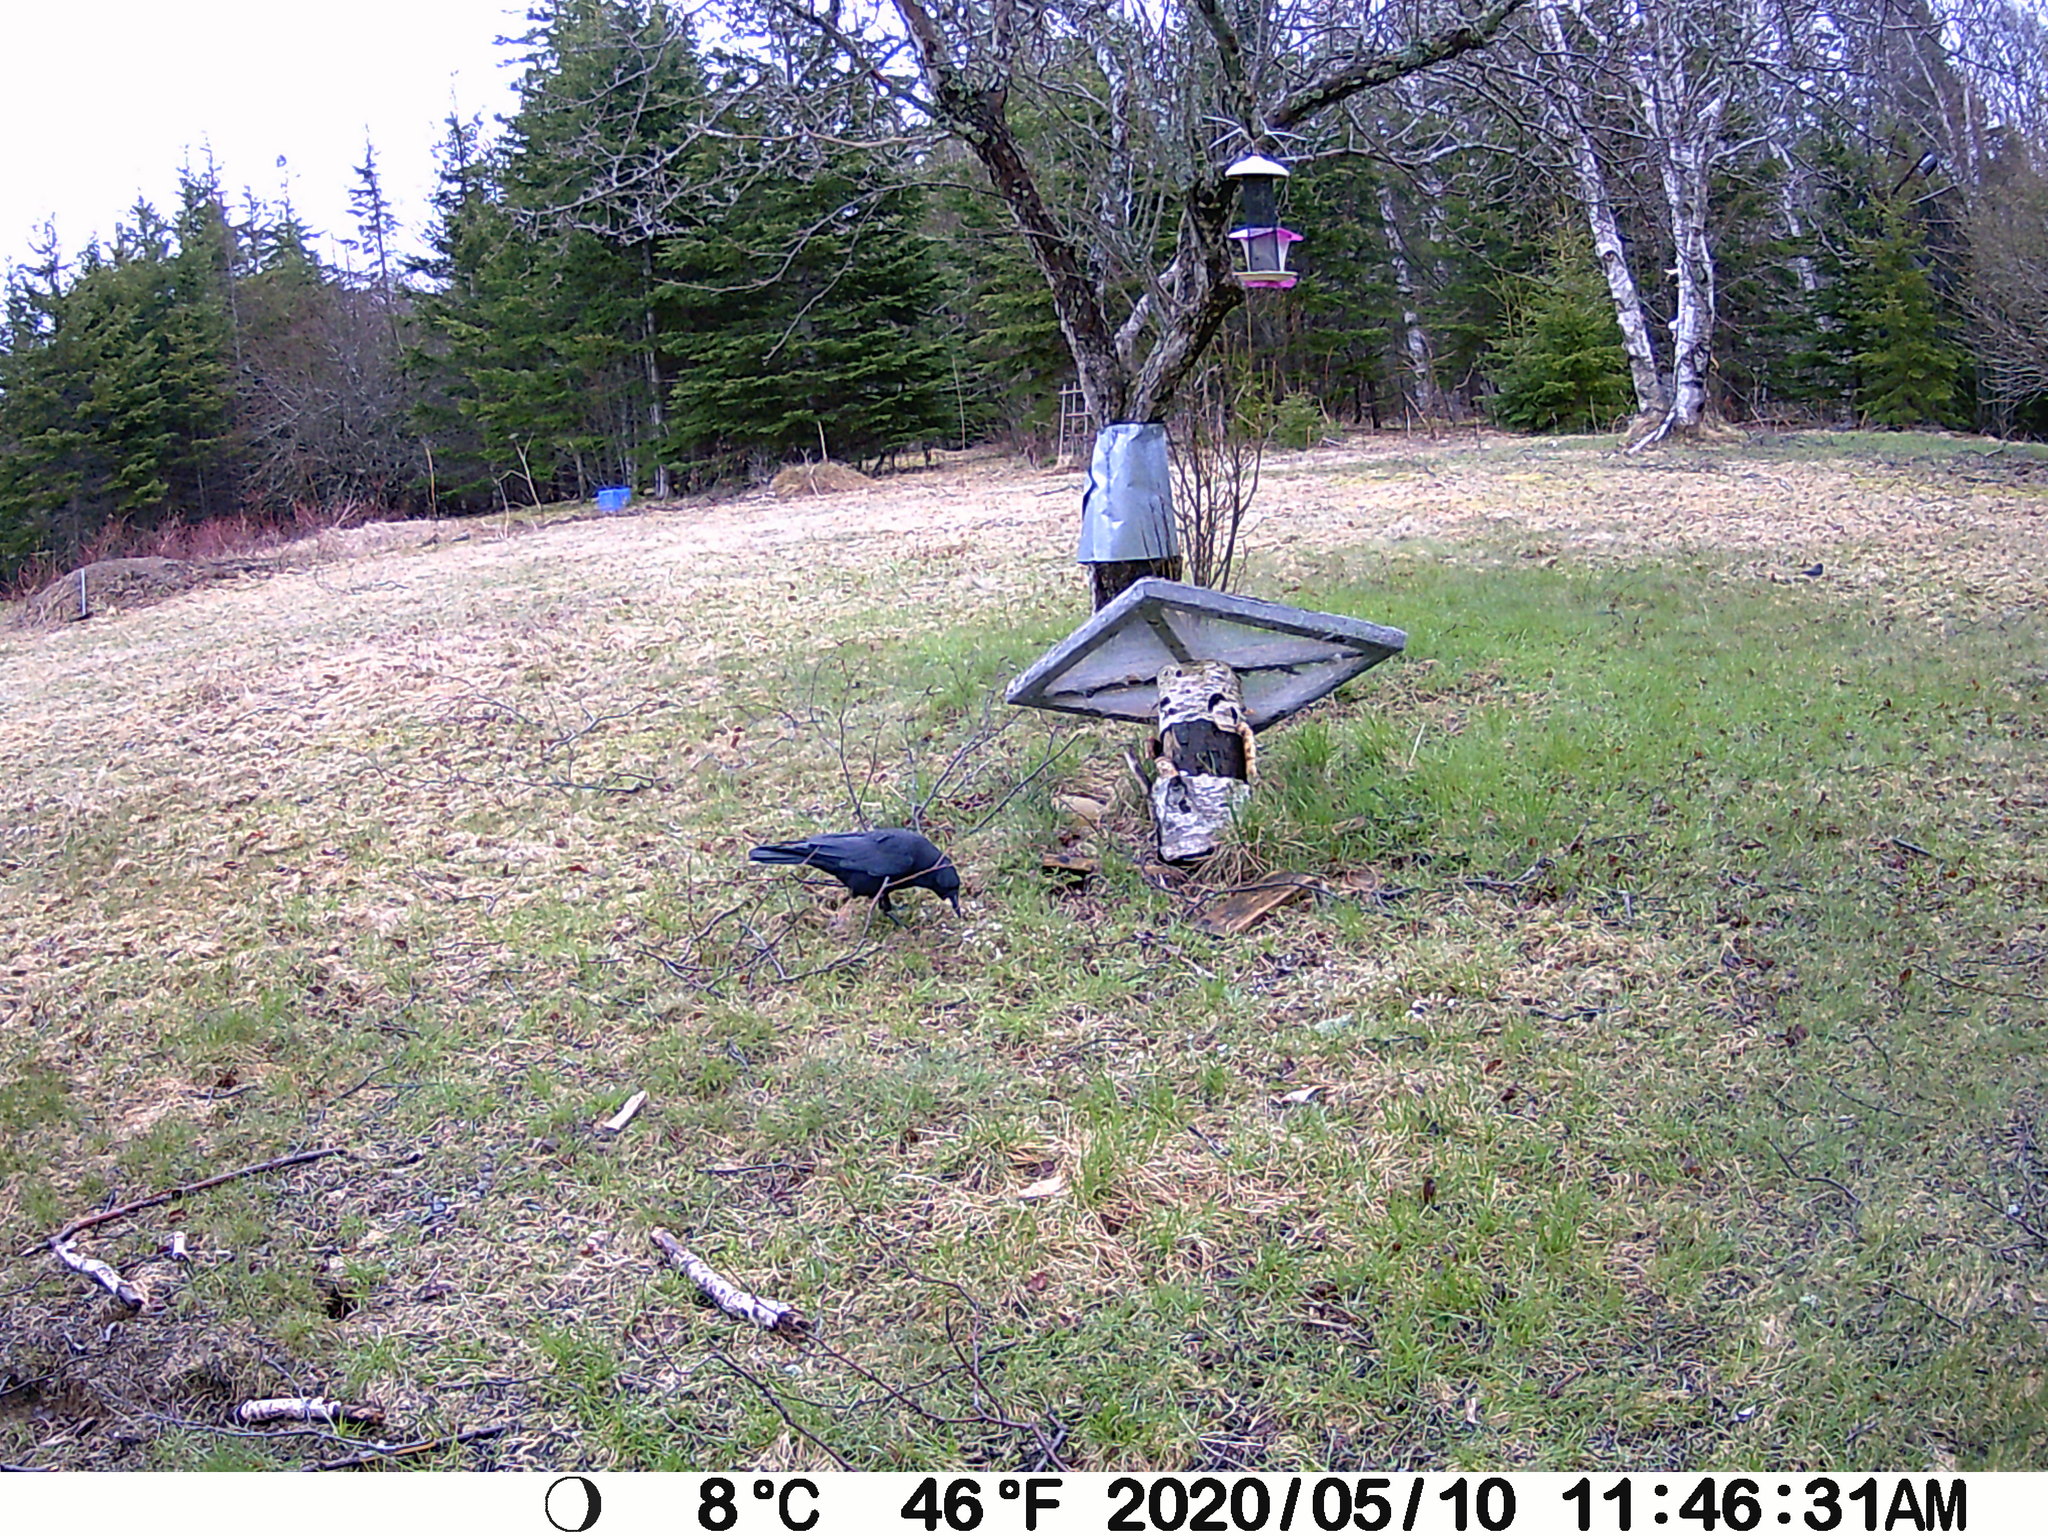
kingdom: Animalia
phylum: Chordata
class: Aves
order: Passeriformes
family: Corvidae
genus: Corvus
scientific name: Corvus brachyrhynchos
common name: American crow
